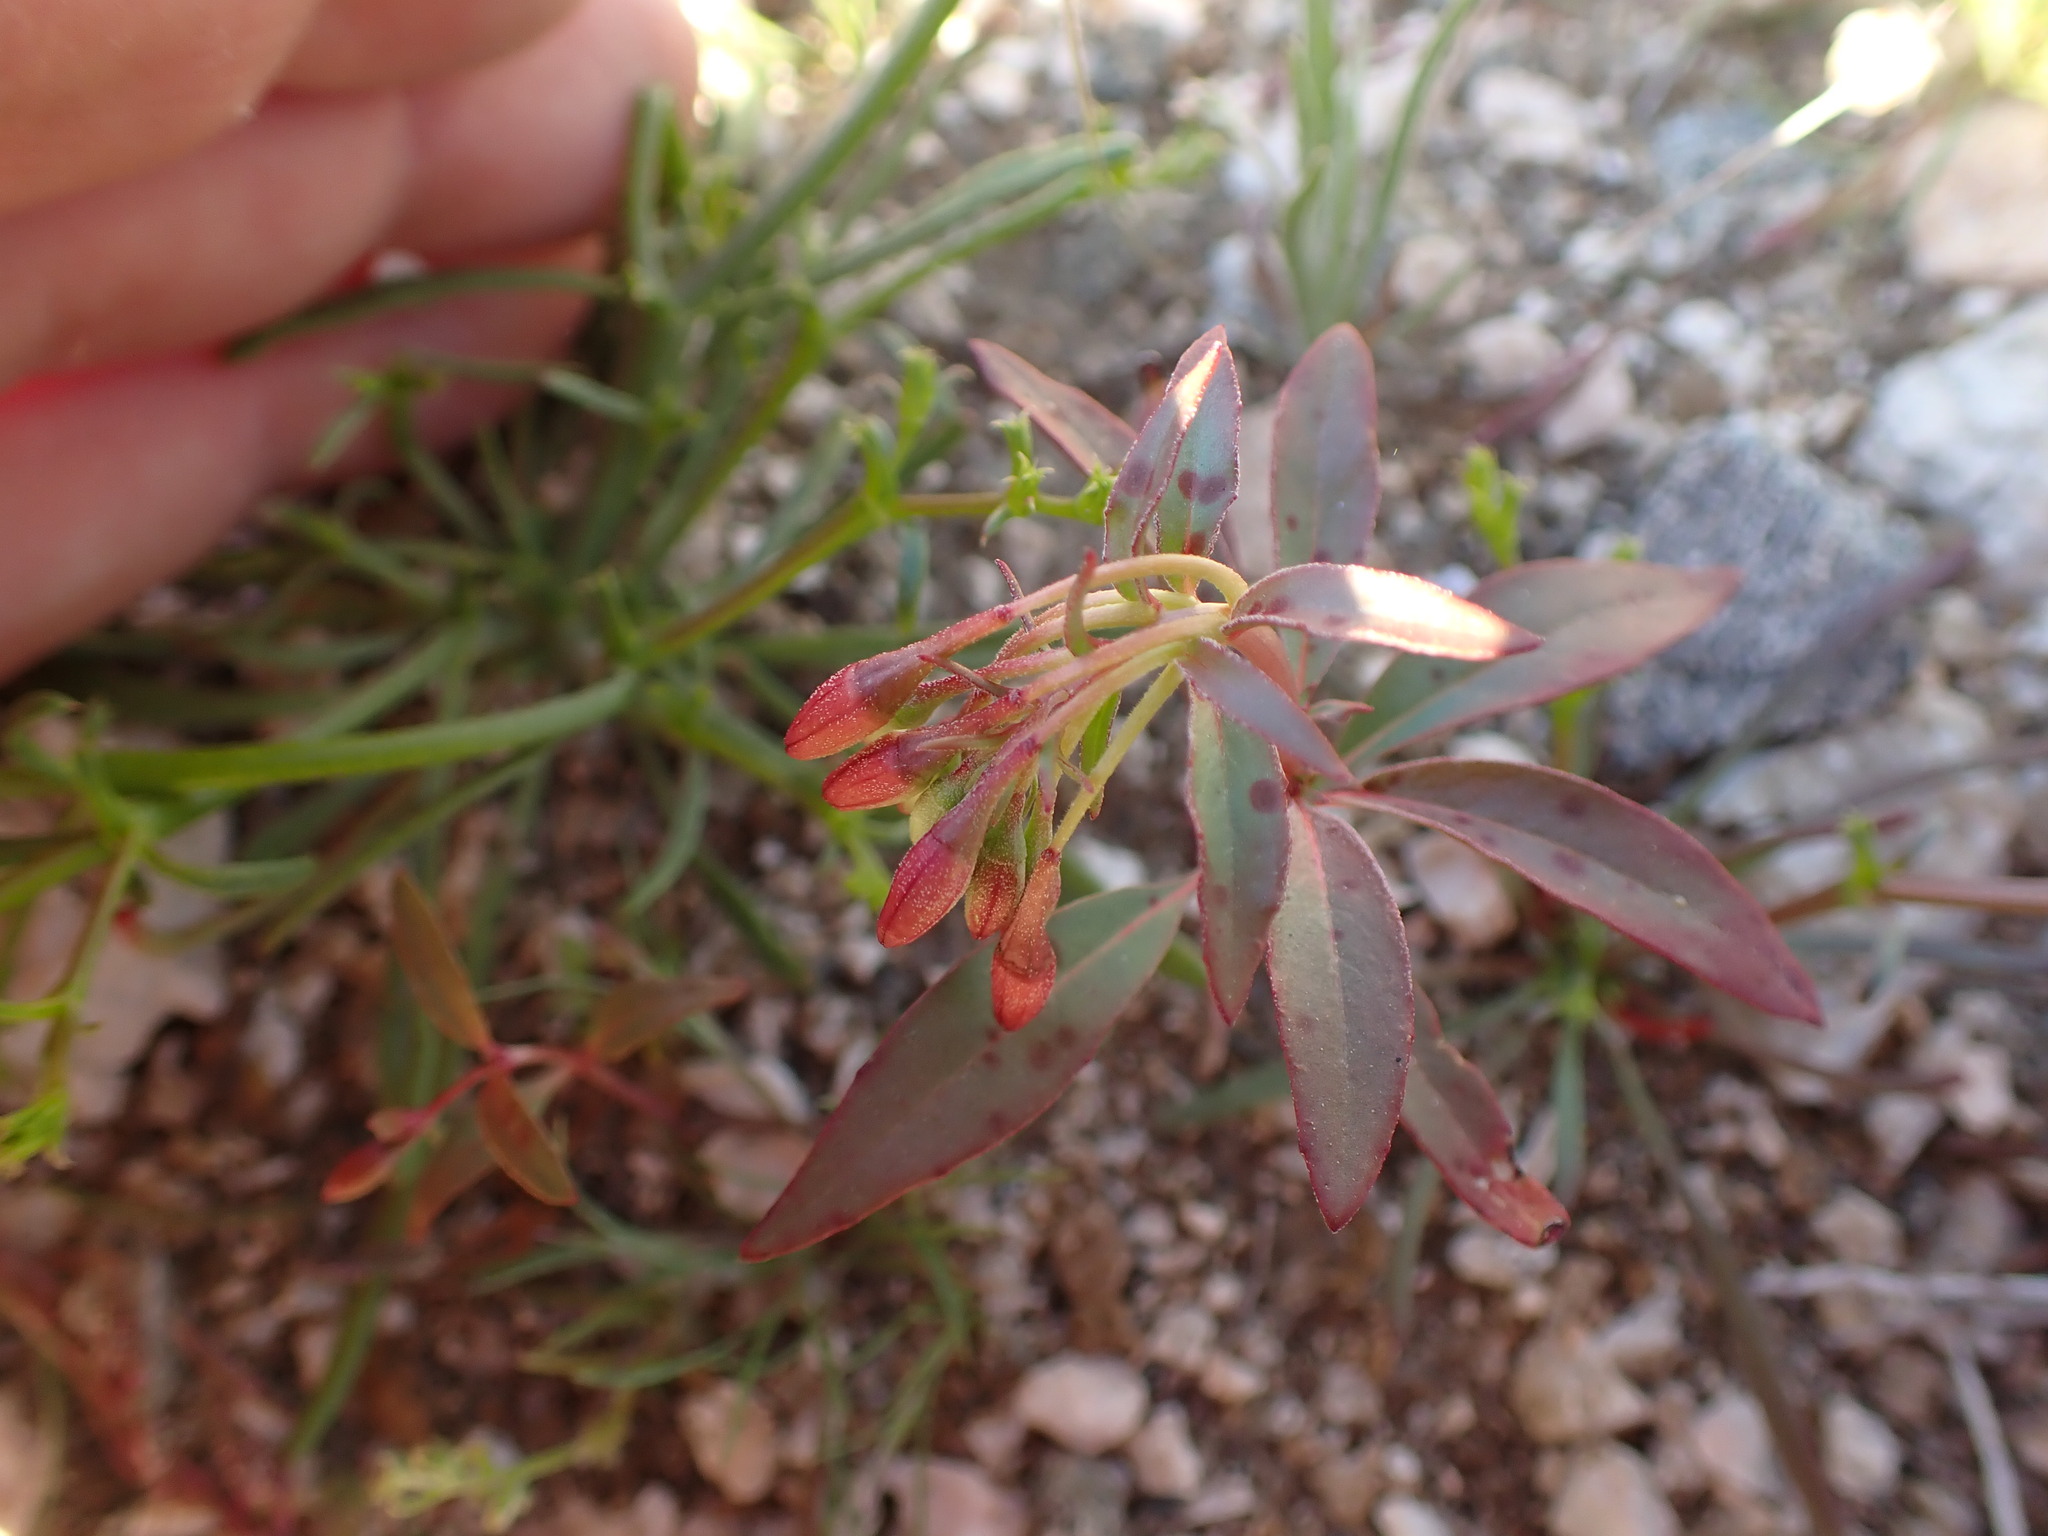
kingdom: Plantae
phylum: Tracheophyta
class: Magnoliopsida
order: Myrtales
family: Onagraceae
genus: Eremothera
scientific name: Eremothera boothii
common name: Booth's evening primrose
